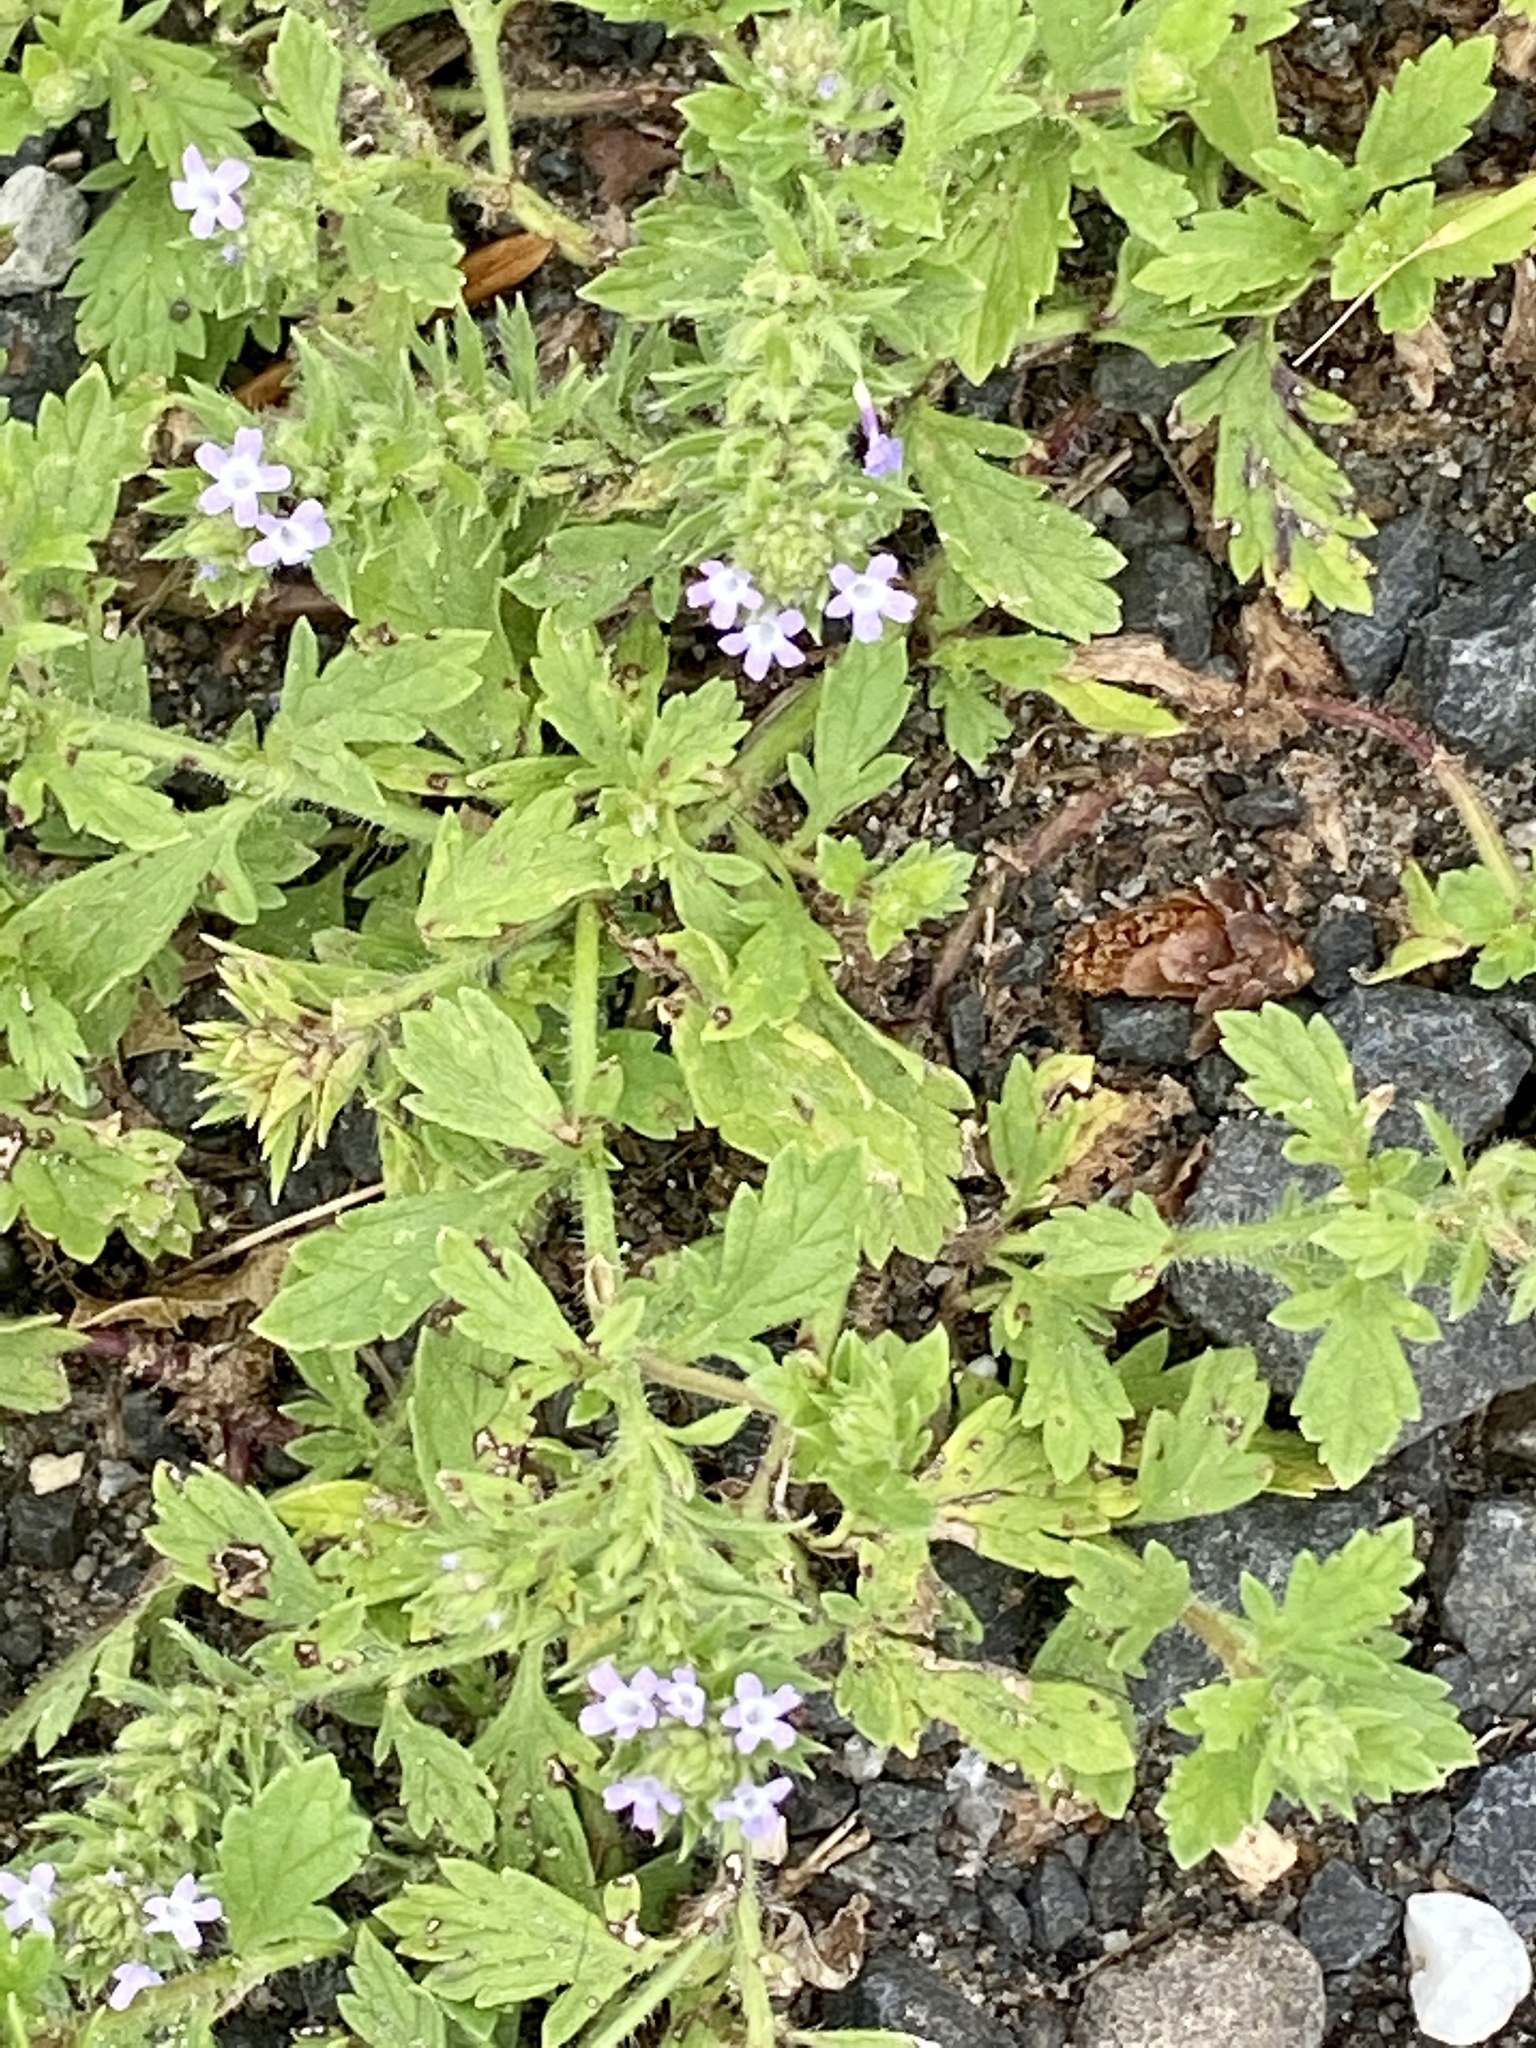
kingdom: Plantae
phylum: Tracheophyta
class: Magnoliopsida
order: Lamiales
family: Verbenaceae
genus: Verbena
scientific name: Verbena bracteata
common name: Bracted vervain
